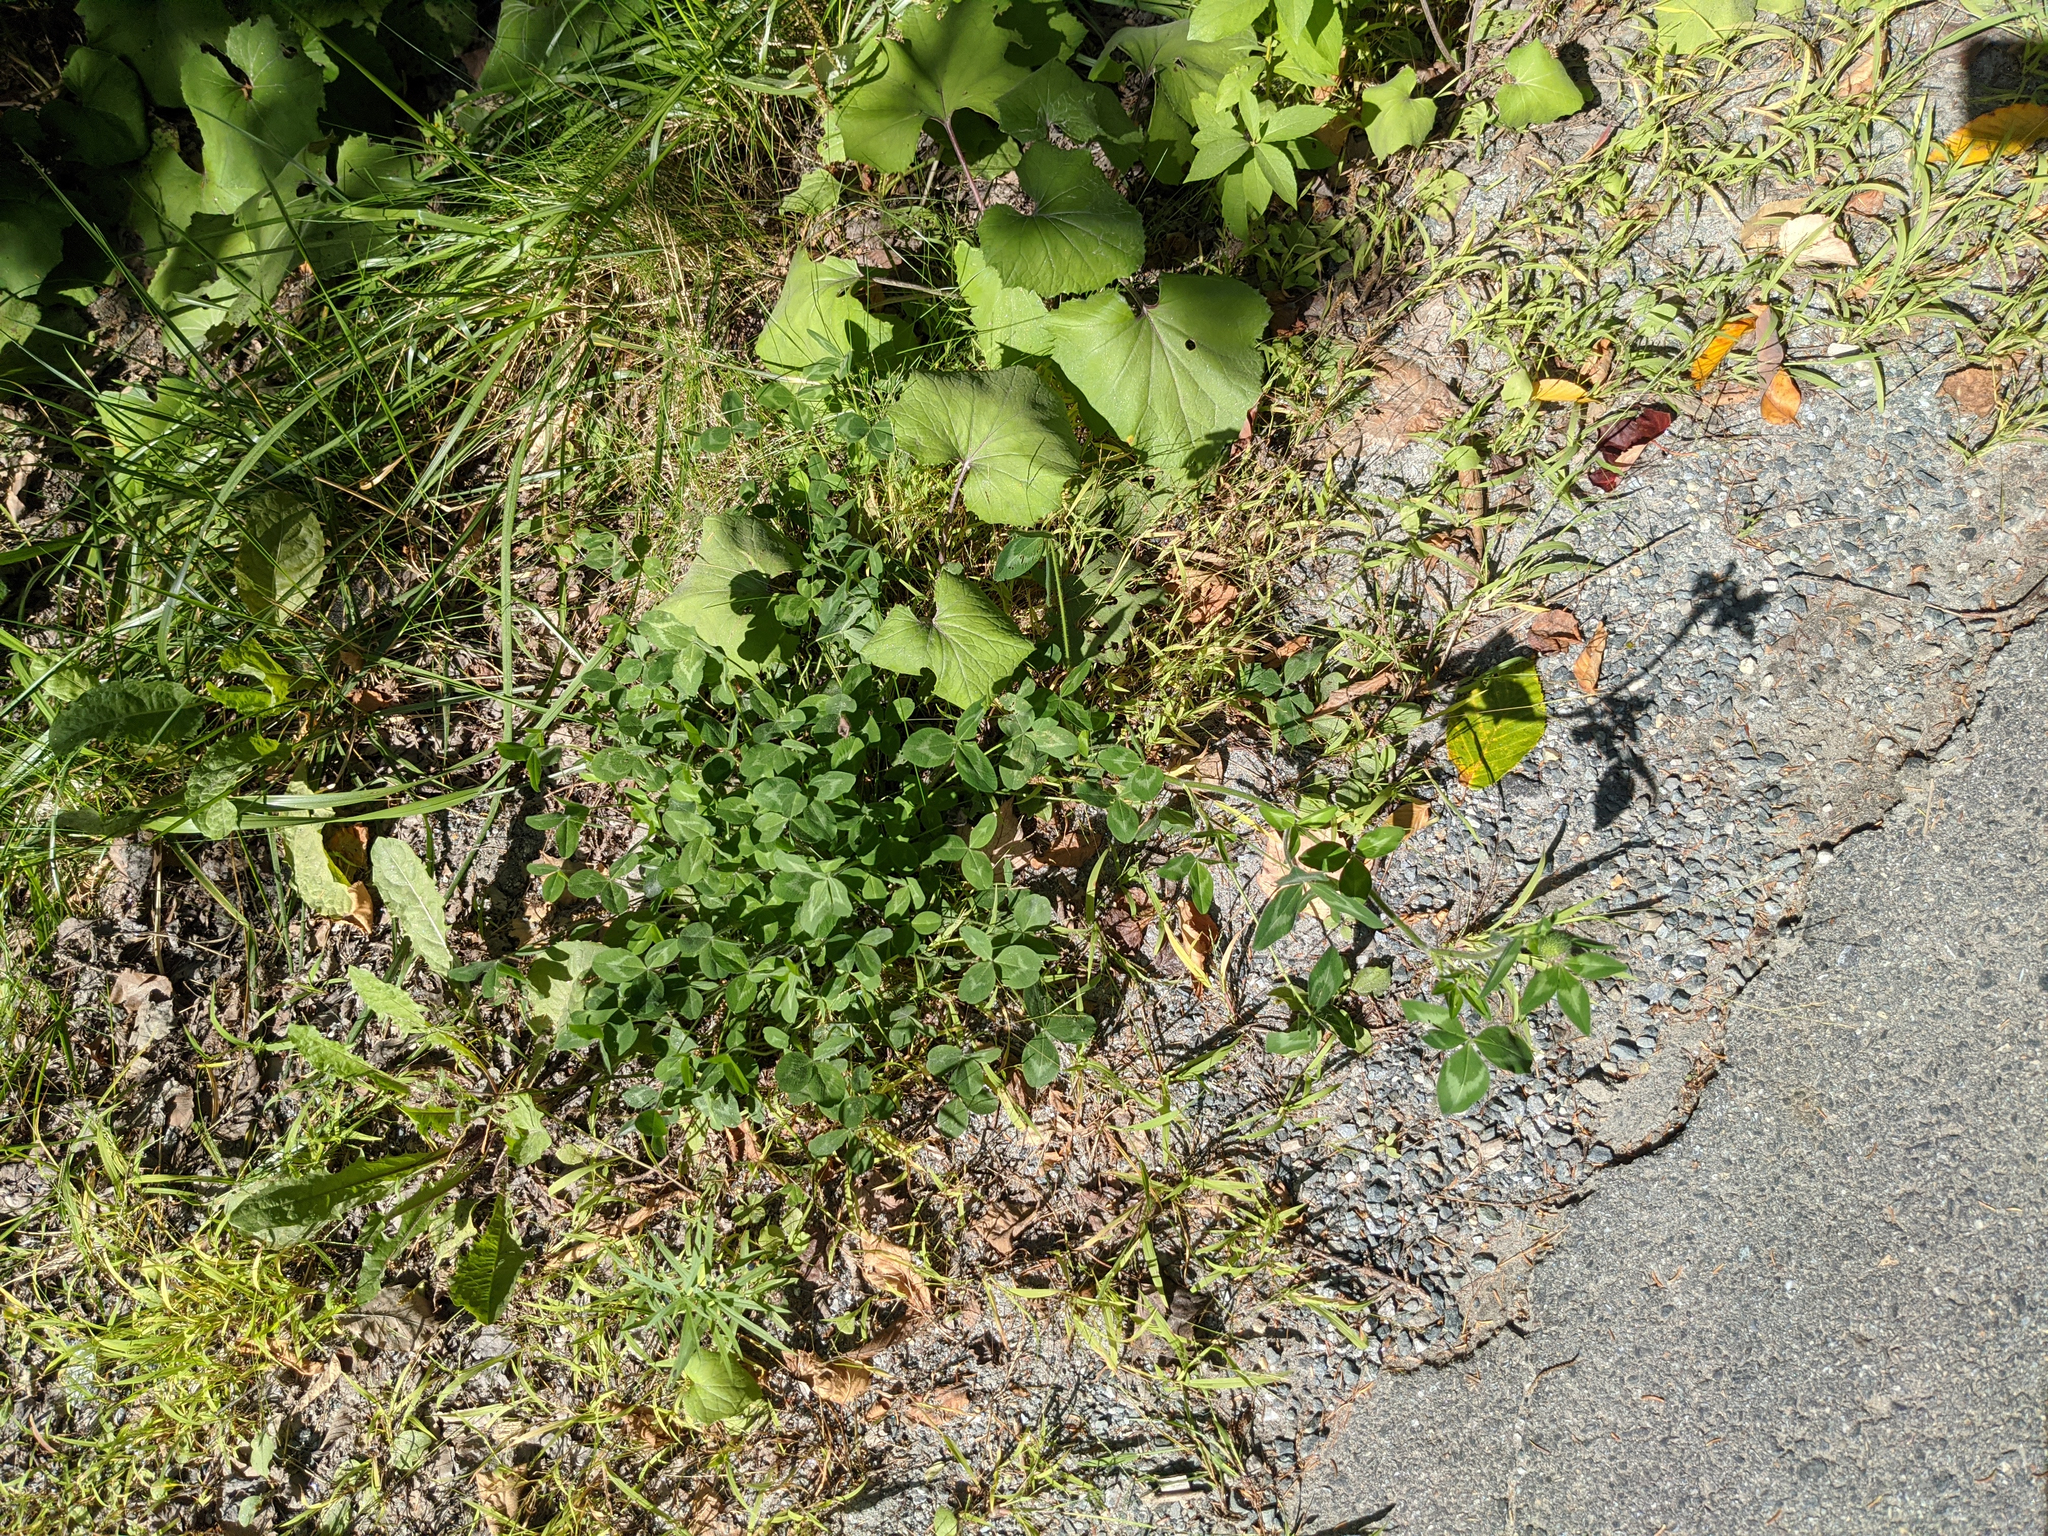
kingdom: Plantae
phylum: Tracheophyta
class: Magnoliopsida
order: Asterales
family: Asteraceae
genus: Tussilago
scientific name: Tussilago farfara
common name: Coltsfoot
